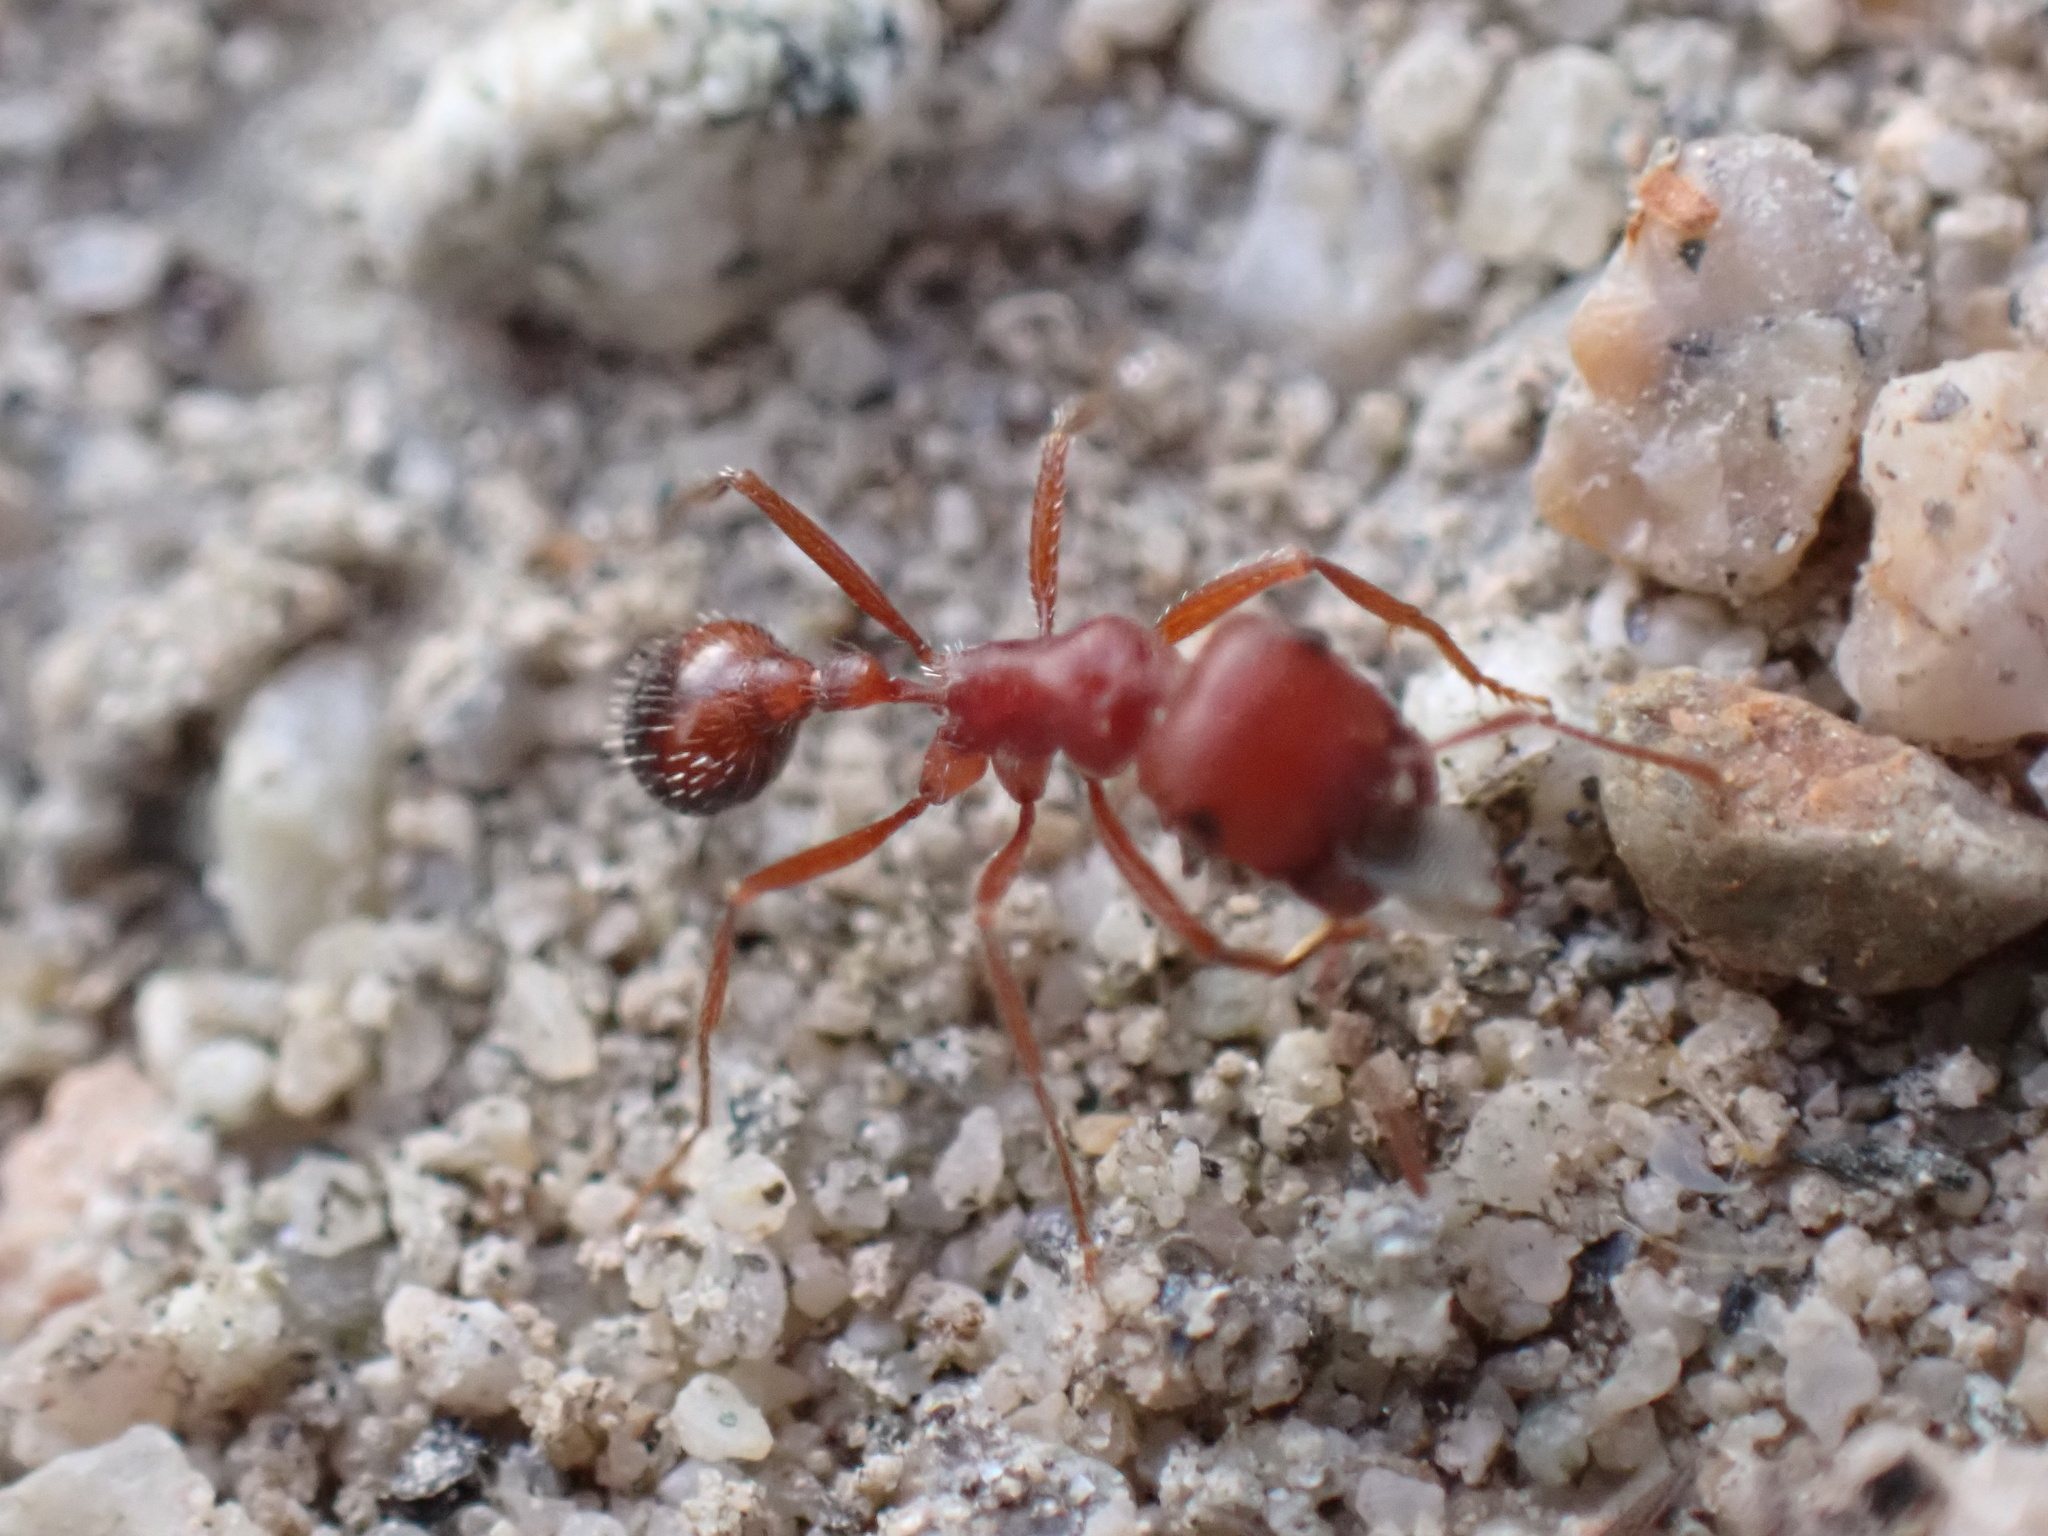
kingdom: Animalia
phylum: Arthropoda
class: Insecta
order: Hymenoptera
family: Formicidae
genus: Pogonomyrmex
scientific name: Pogonomyrmex californicus
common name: California harvester ant
